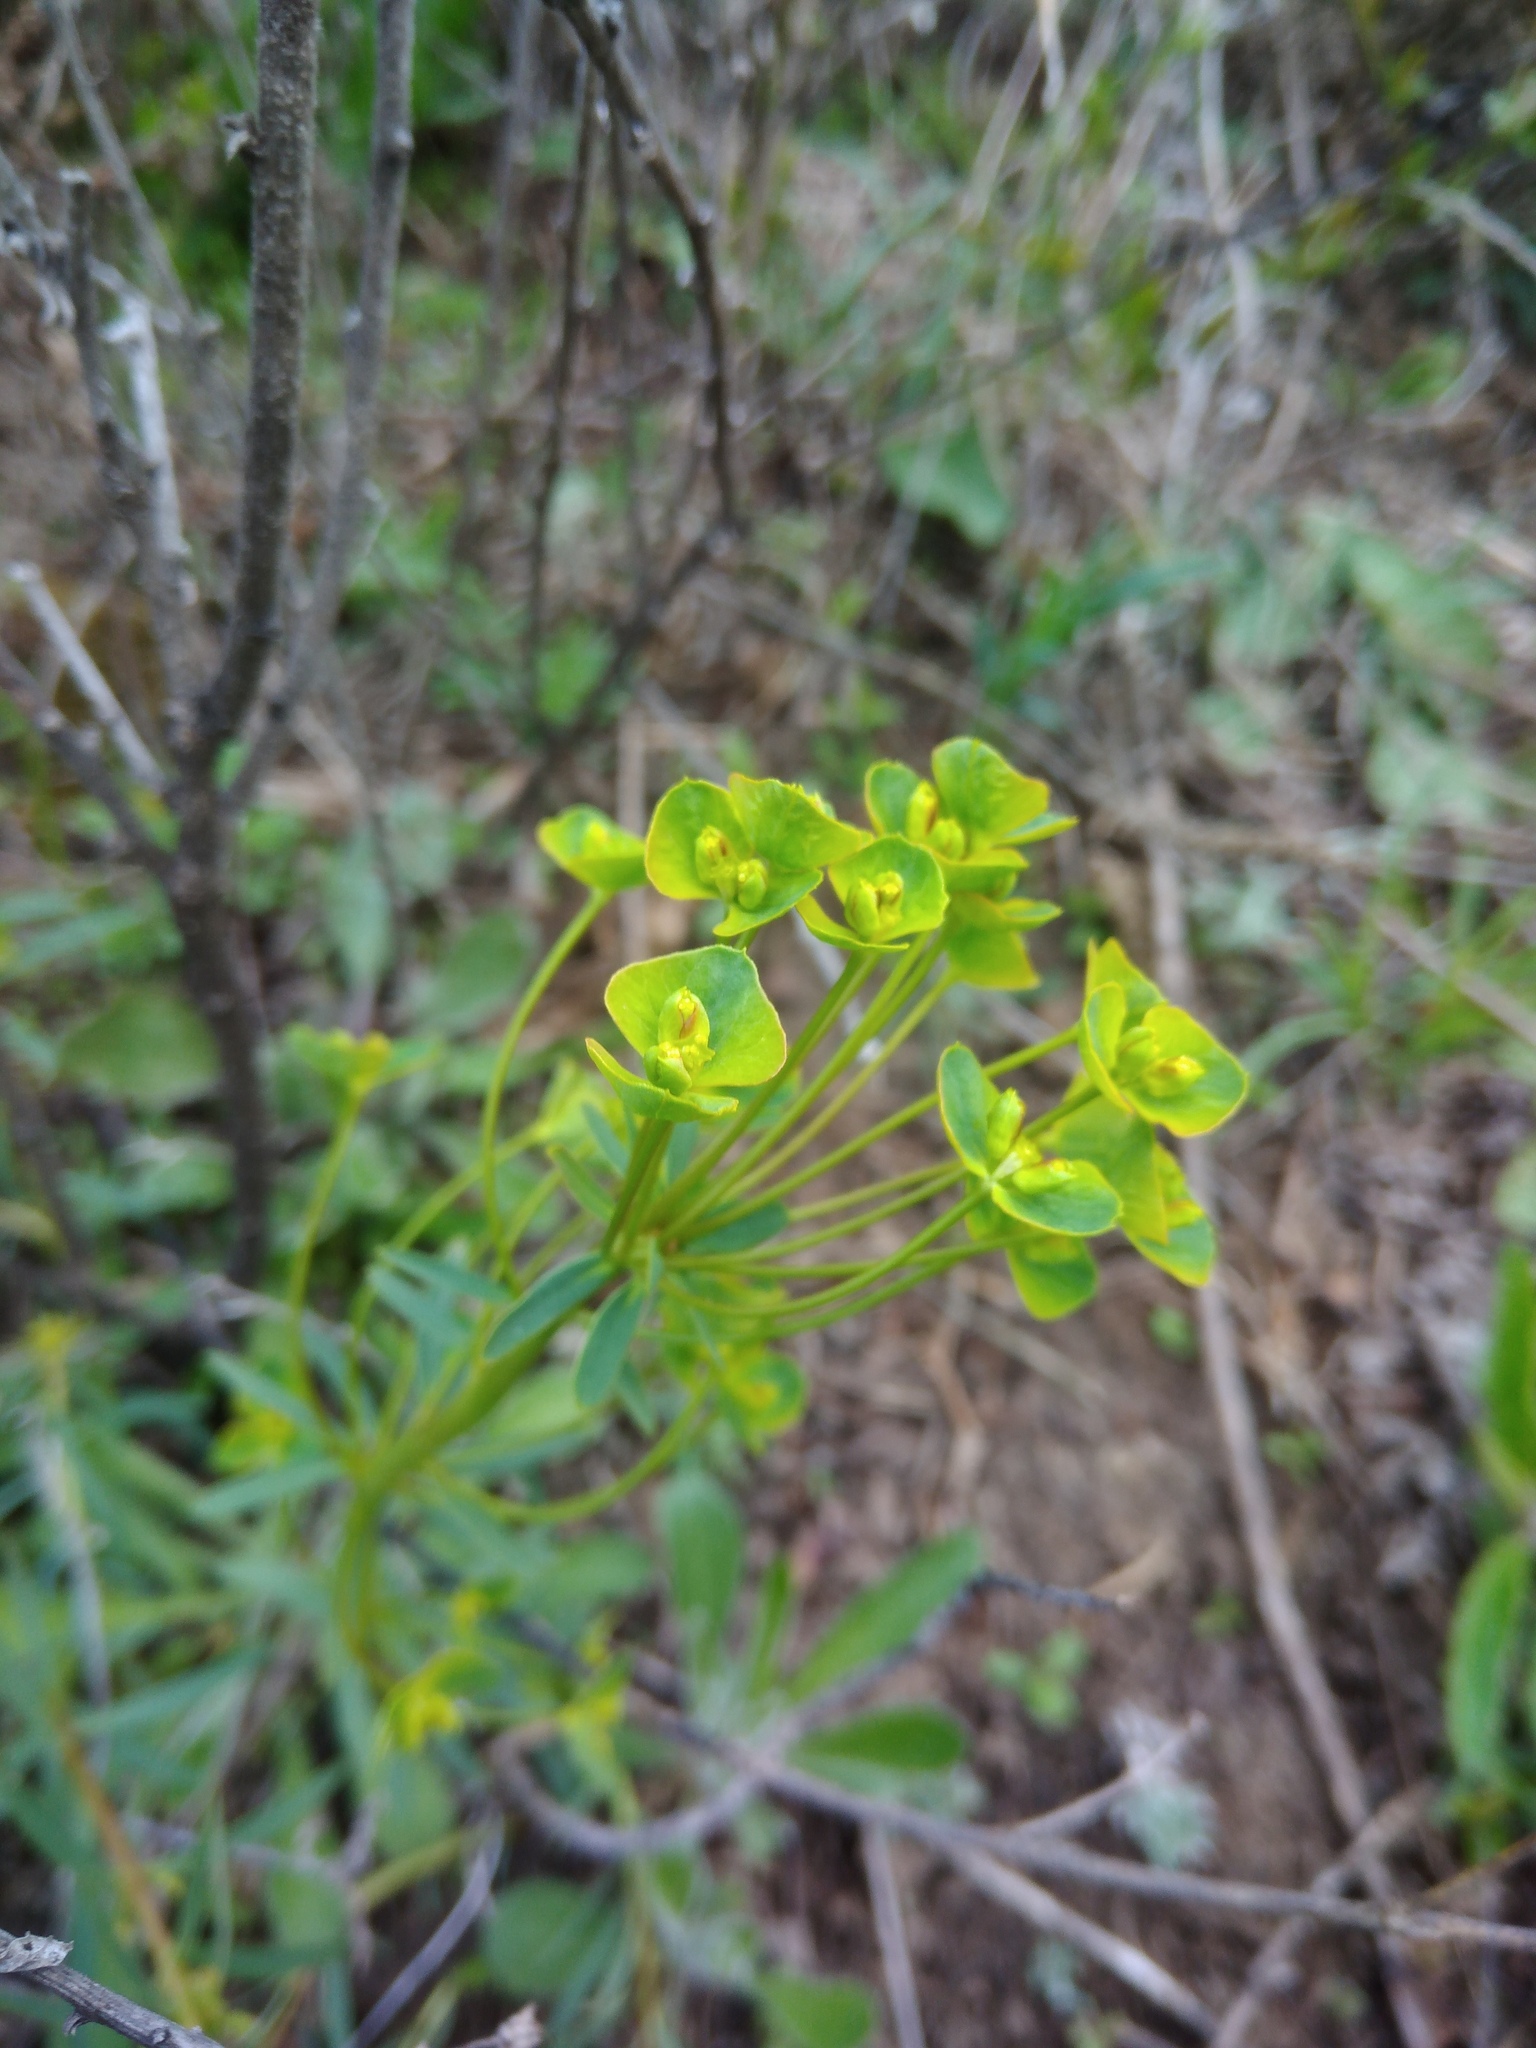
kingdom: Plantae
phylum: Tracheophyta
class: Magnoliopsida
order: Malpighiales
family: Euphorbiaceae
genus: Euphorbia
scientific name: Euphorbia esula
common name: Leafy spurge
